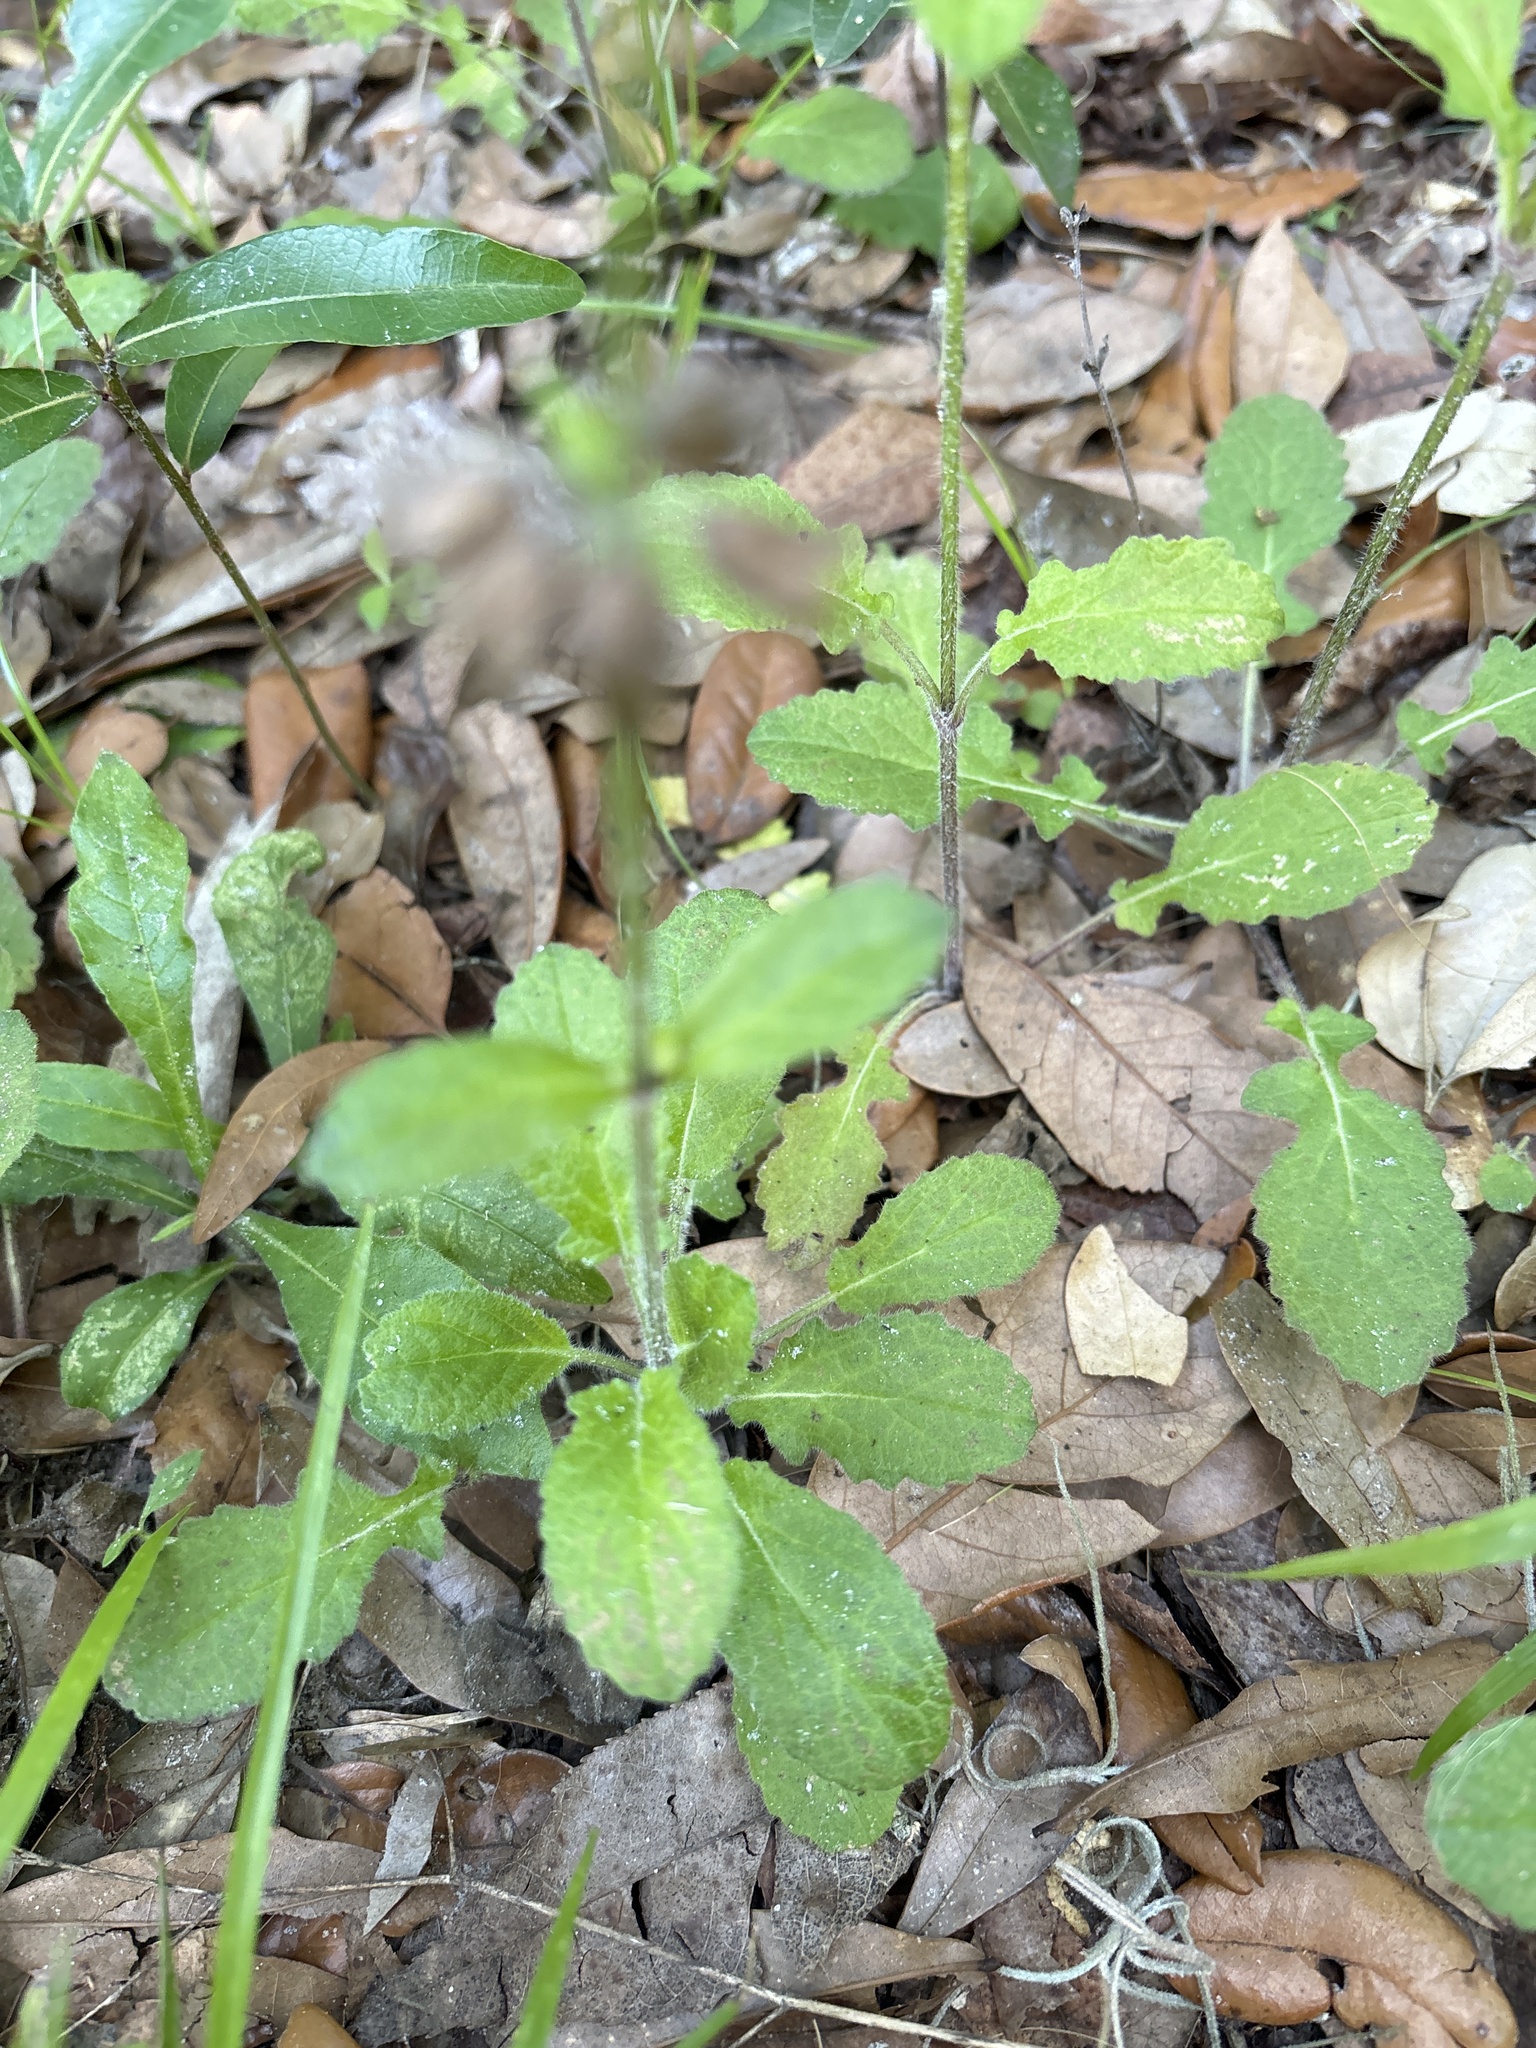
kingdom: Plantae
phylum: Tracheophyta
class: Magnoliopsida
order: Lamiales
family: Lamiaceae
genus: Salvia
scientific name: Salvia lyrata
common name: Cancerweed
